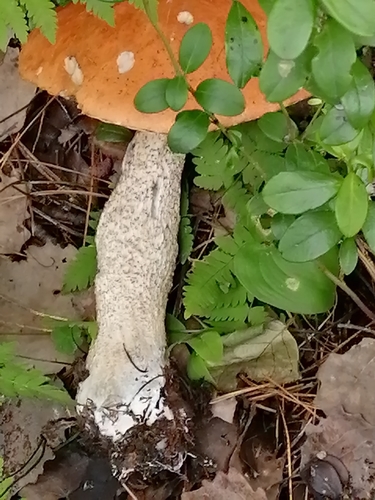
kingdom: Fungi
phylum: Basidiomycota
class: Agaricomycetes
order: Boletales
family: Boletaceae
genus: Leccinum
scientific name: Leccinum versipelle
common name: Orange birch bolete
